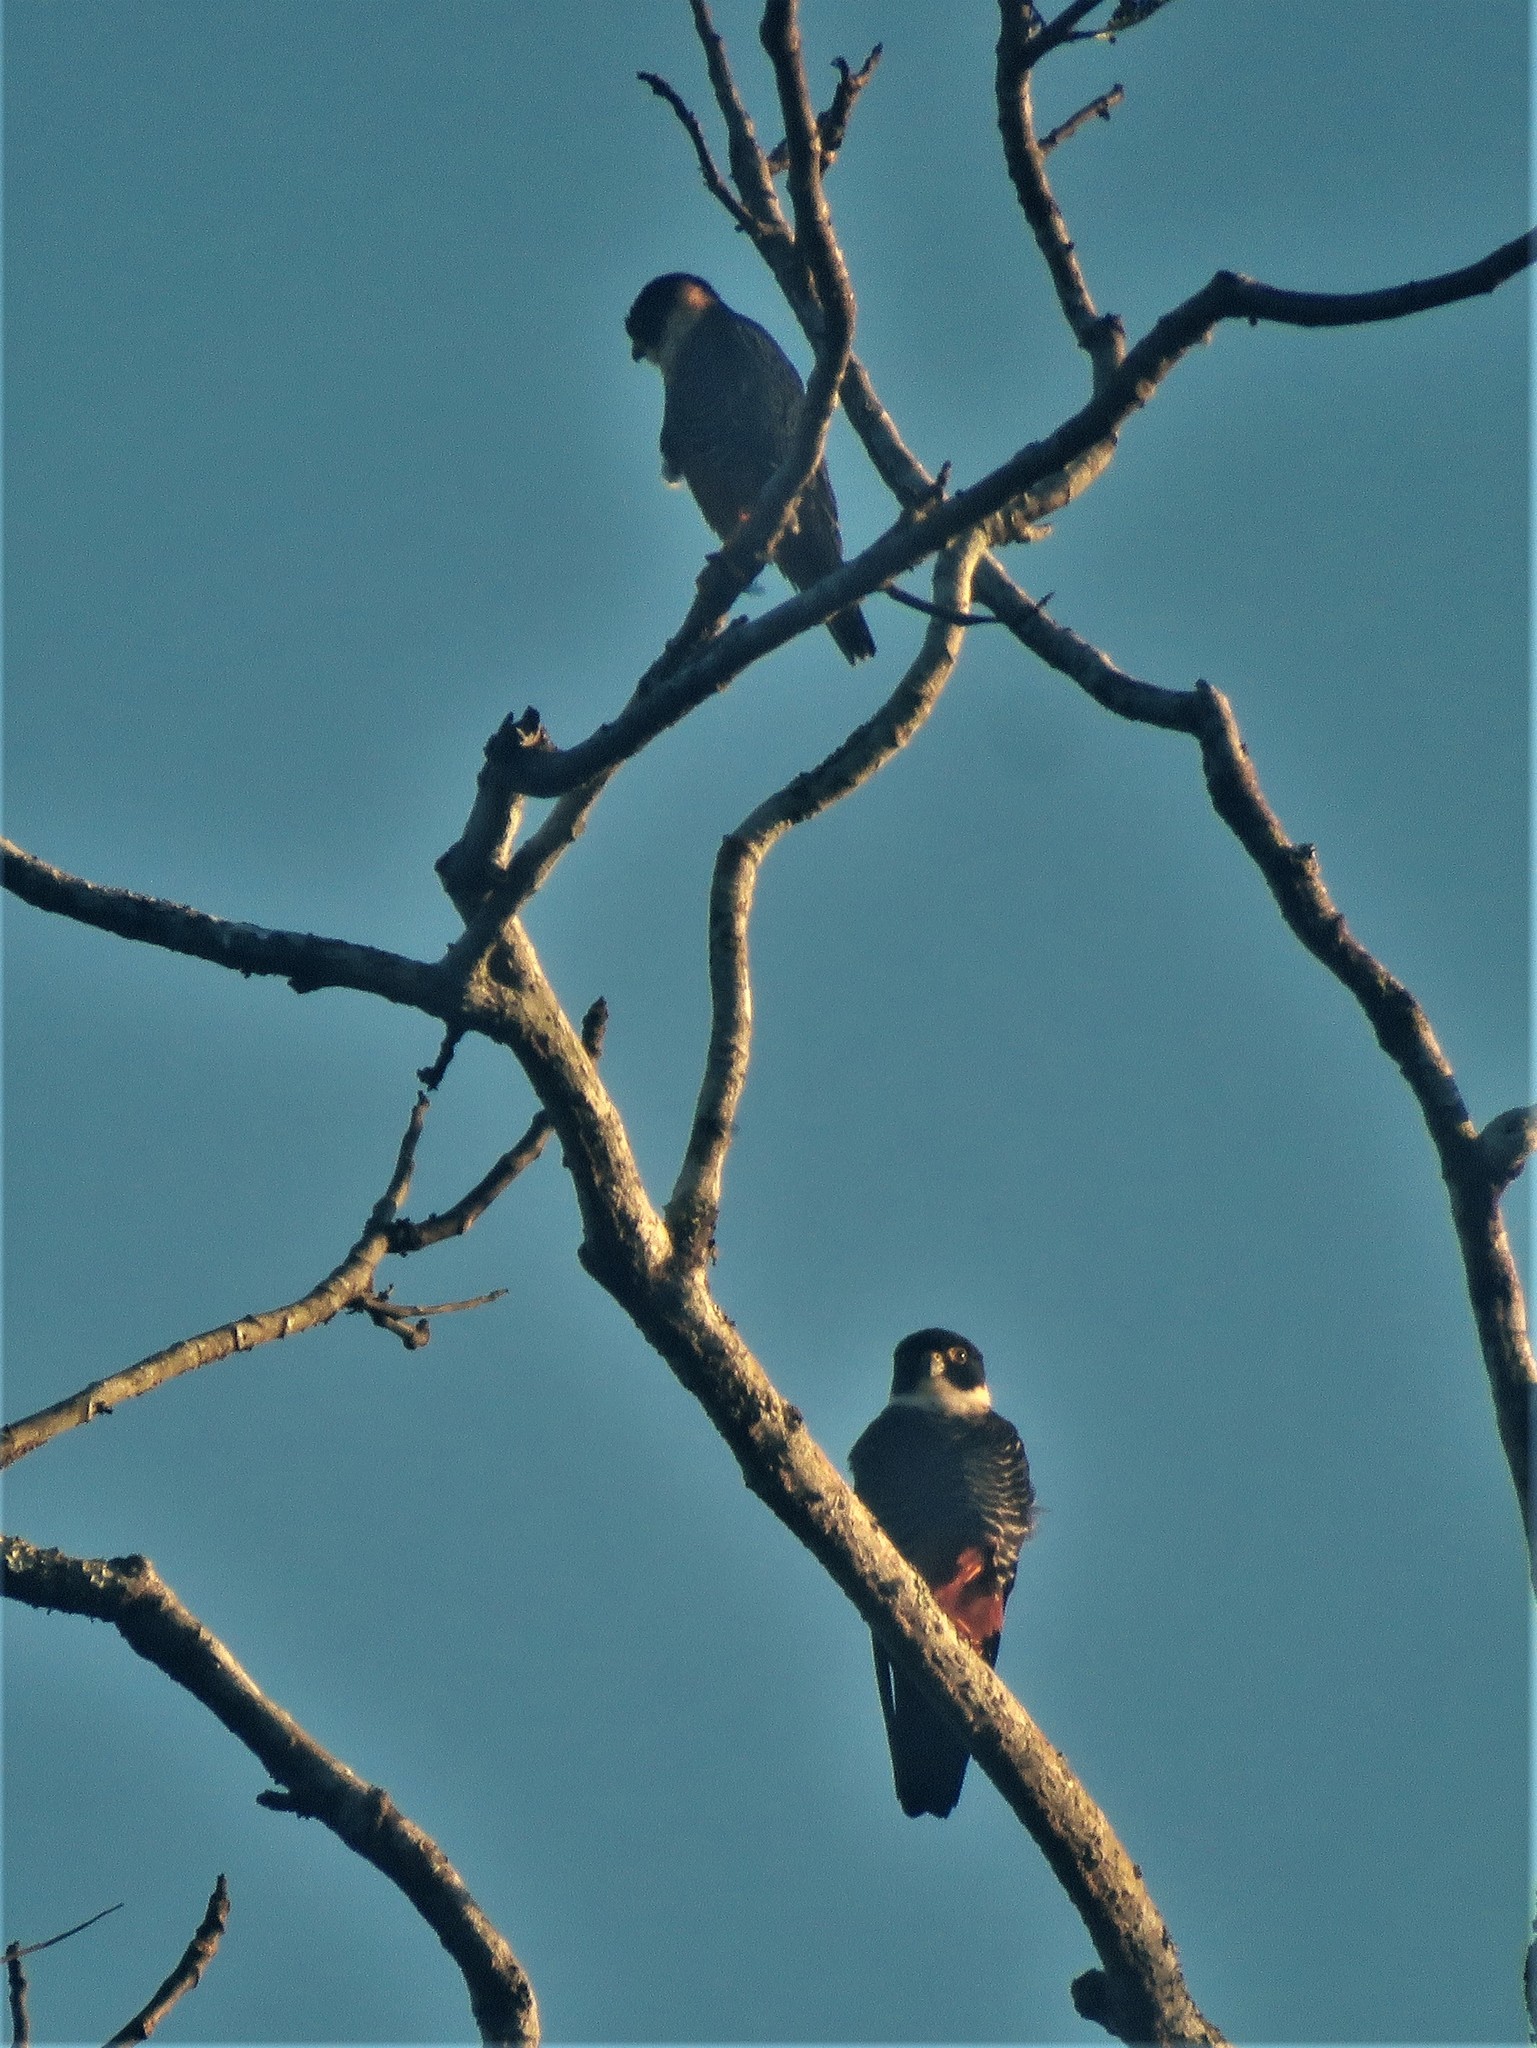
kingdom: Animalia
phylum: Chordata
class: Aves
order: Falconiformes
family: Falconidae
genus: Falco
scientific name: Falco rufigularis
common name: Bat falcon
